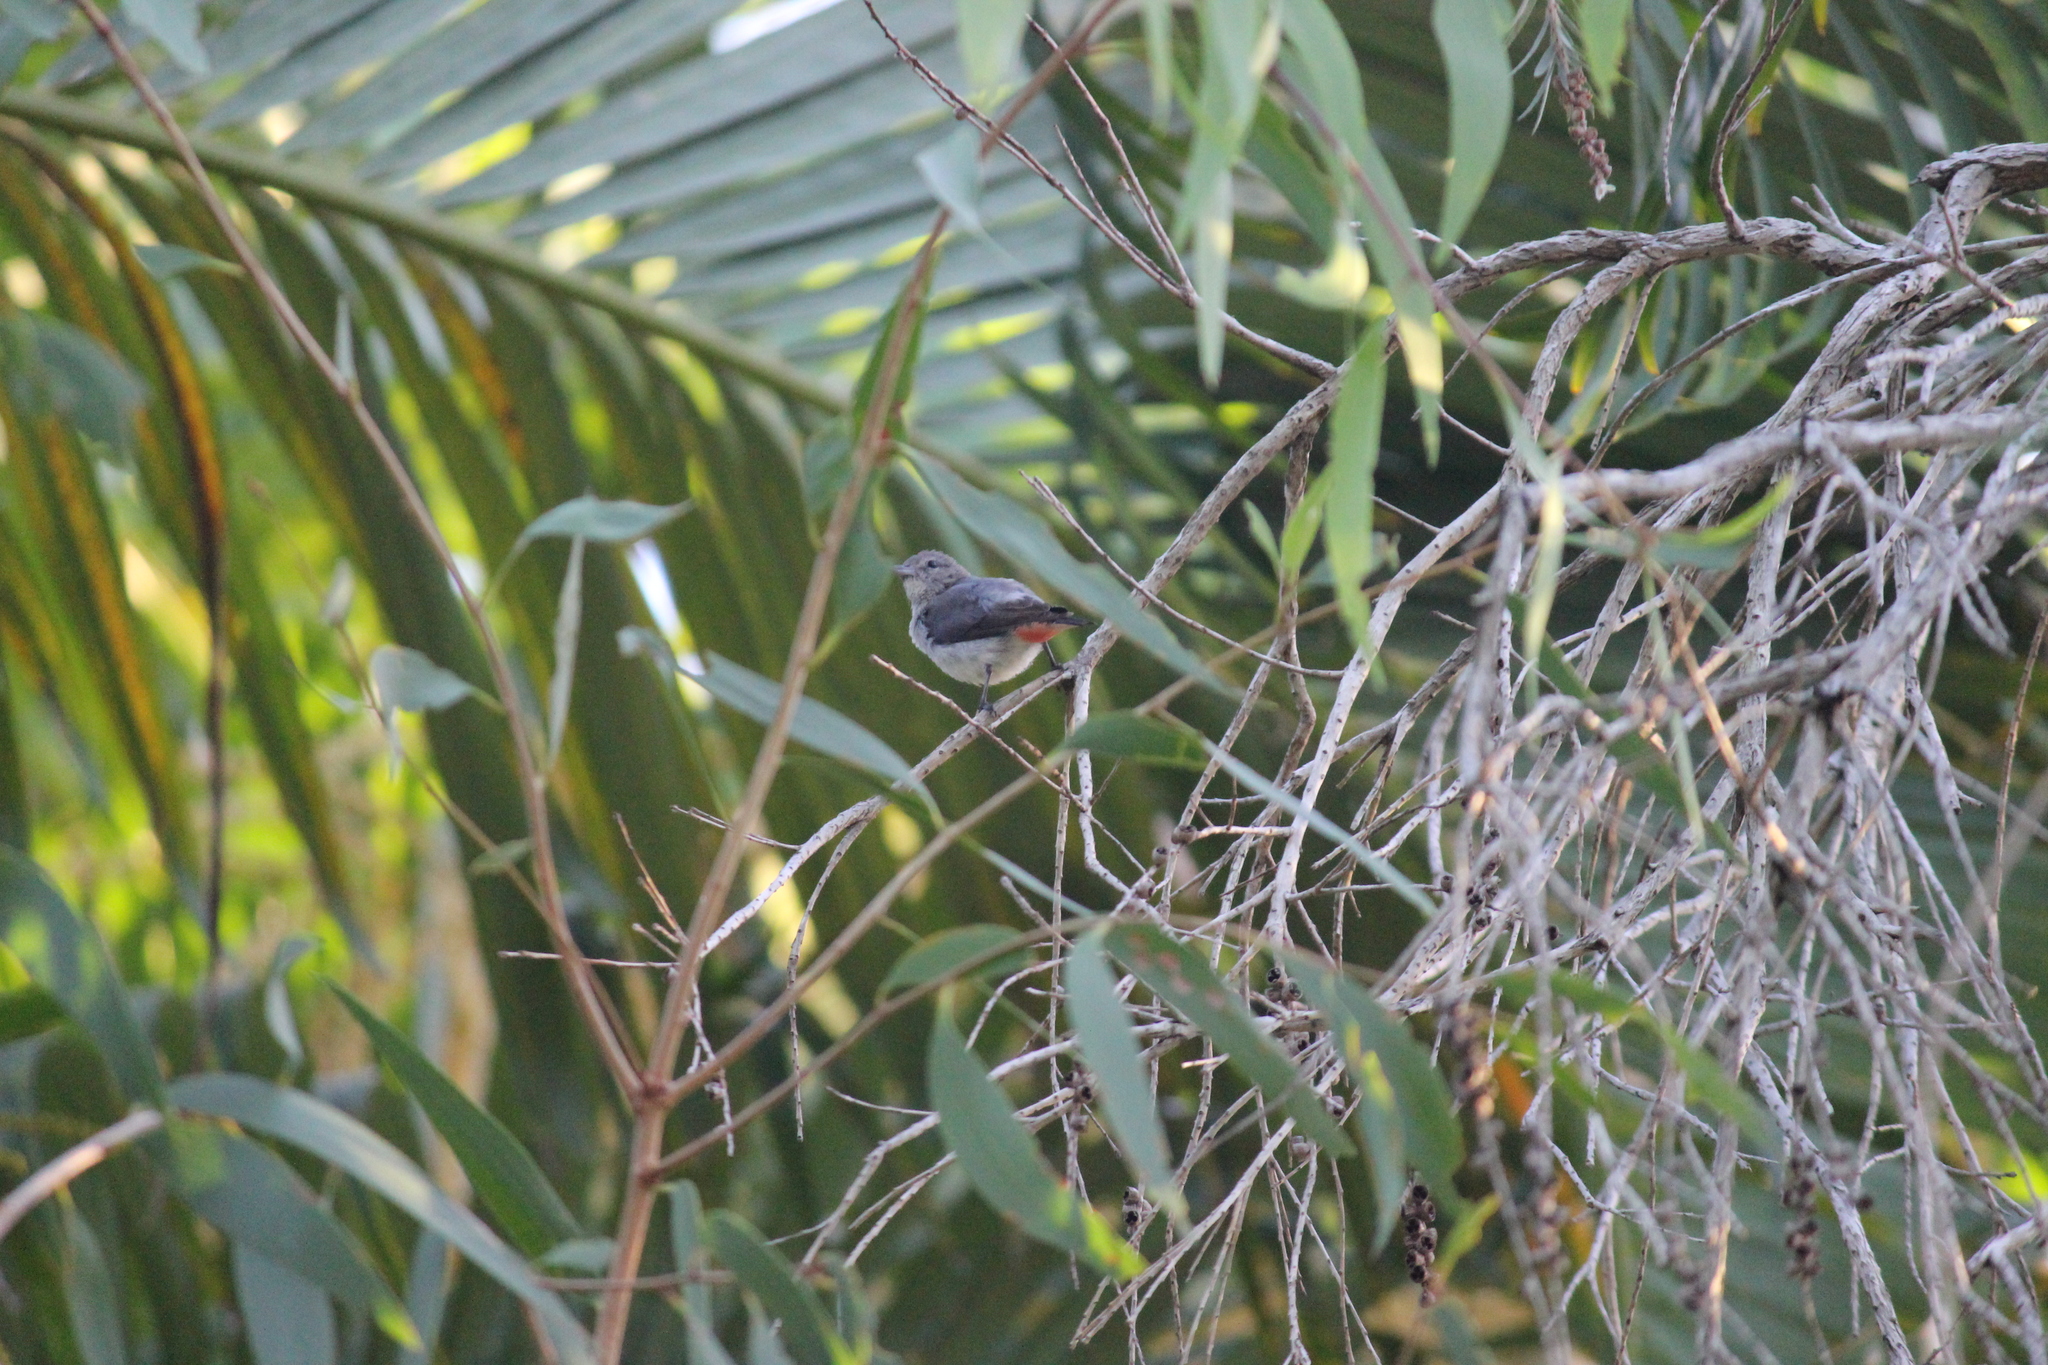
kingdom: Animalia
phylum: Chordata
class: Aves
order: Passeriformes
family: Dicaeidae
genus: Dicaeum
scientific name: Dicaeum hirundinaceum
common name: Mistletoebird
